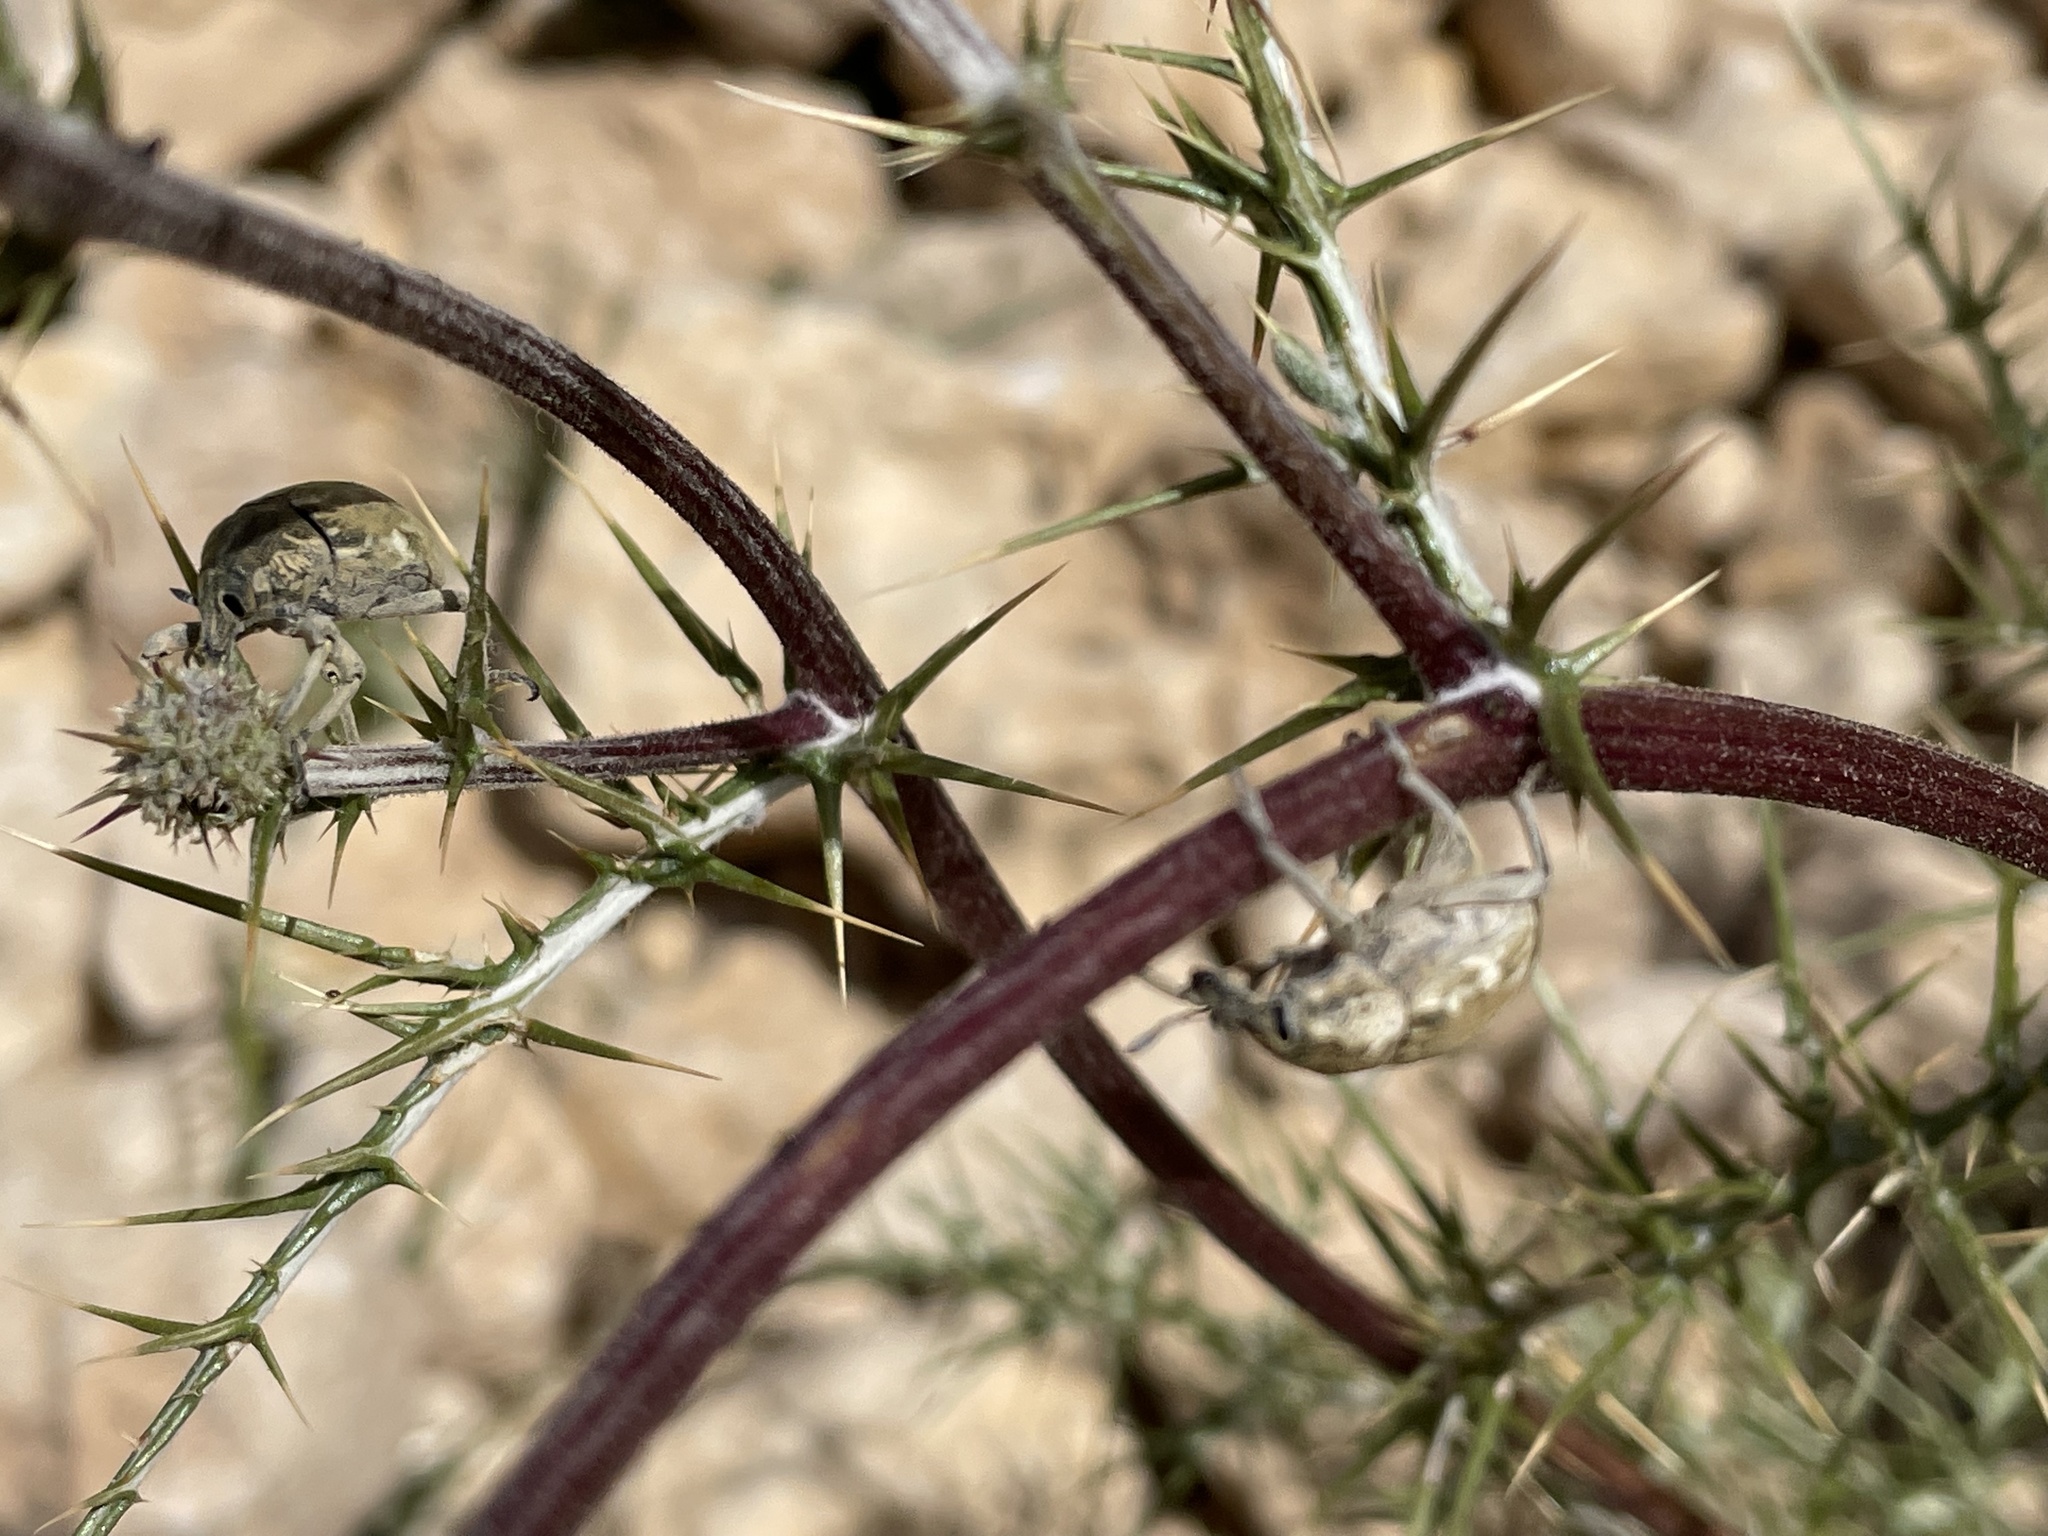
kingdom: Animalia
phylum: Arthropoda
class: Insecta
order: Coleoptera
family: Curculionidae
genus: Larinus
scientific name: Larinus onopordi
